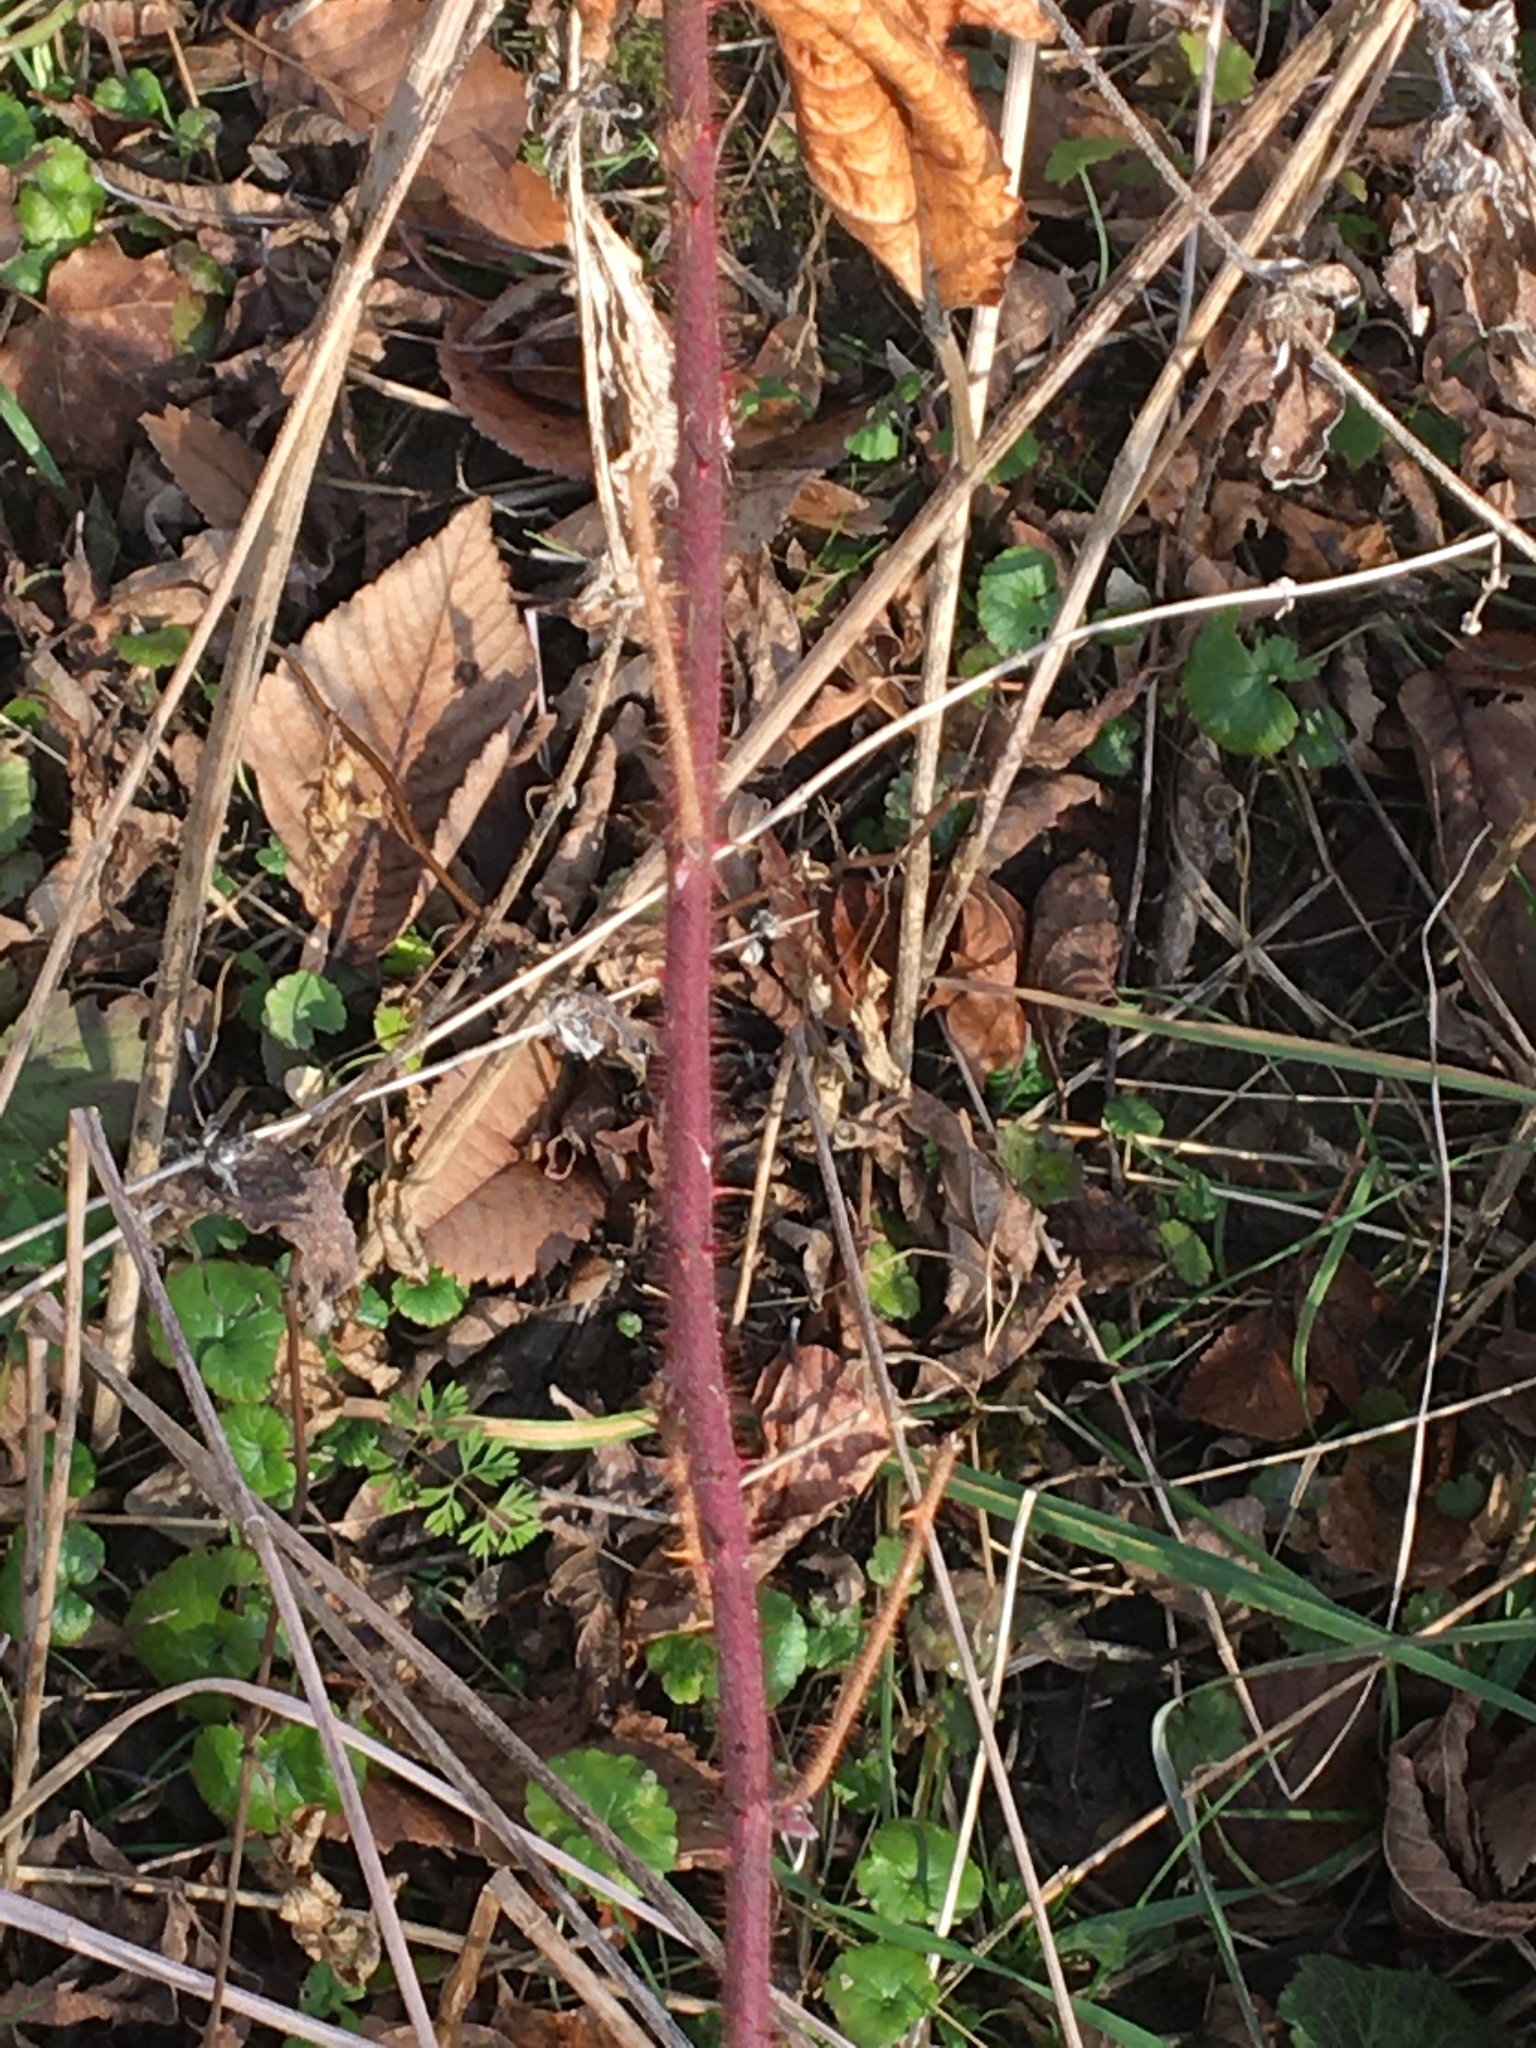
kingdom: Plantae
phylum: Tracheophyta
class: Magnoliopsida
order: Rosales
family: Rosaceae
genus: Rubus
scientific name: Rubus phoenicolasius
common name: Japanese wineberry
